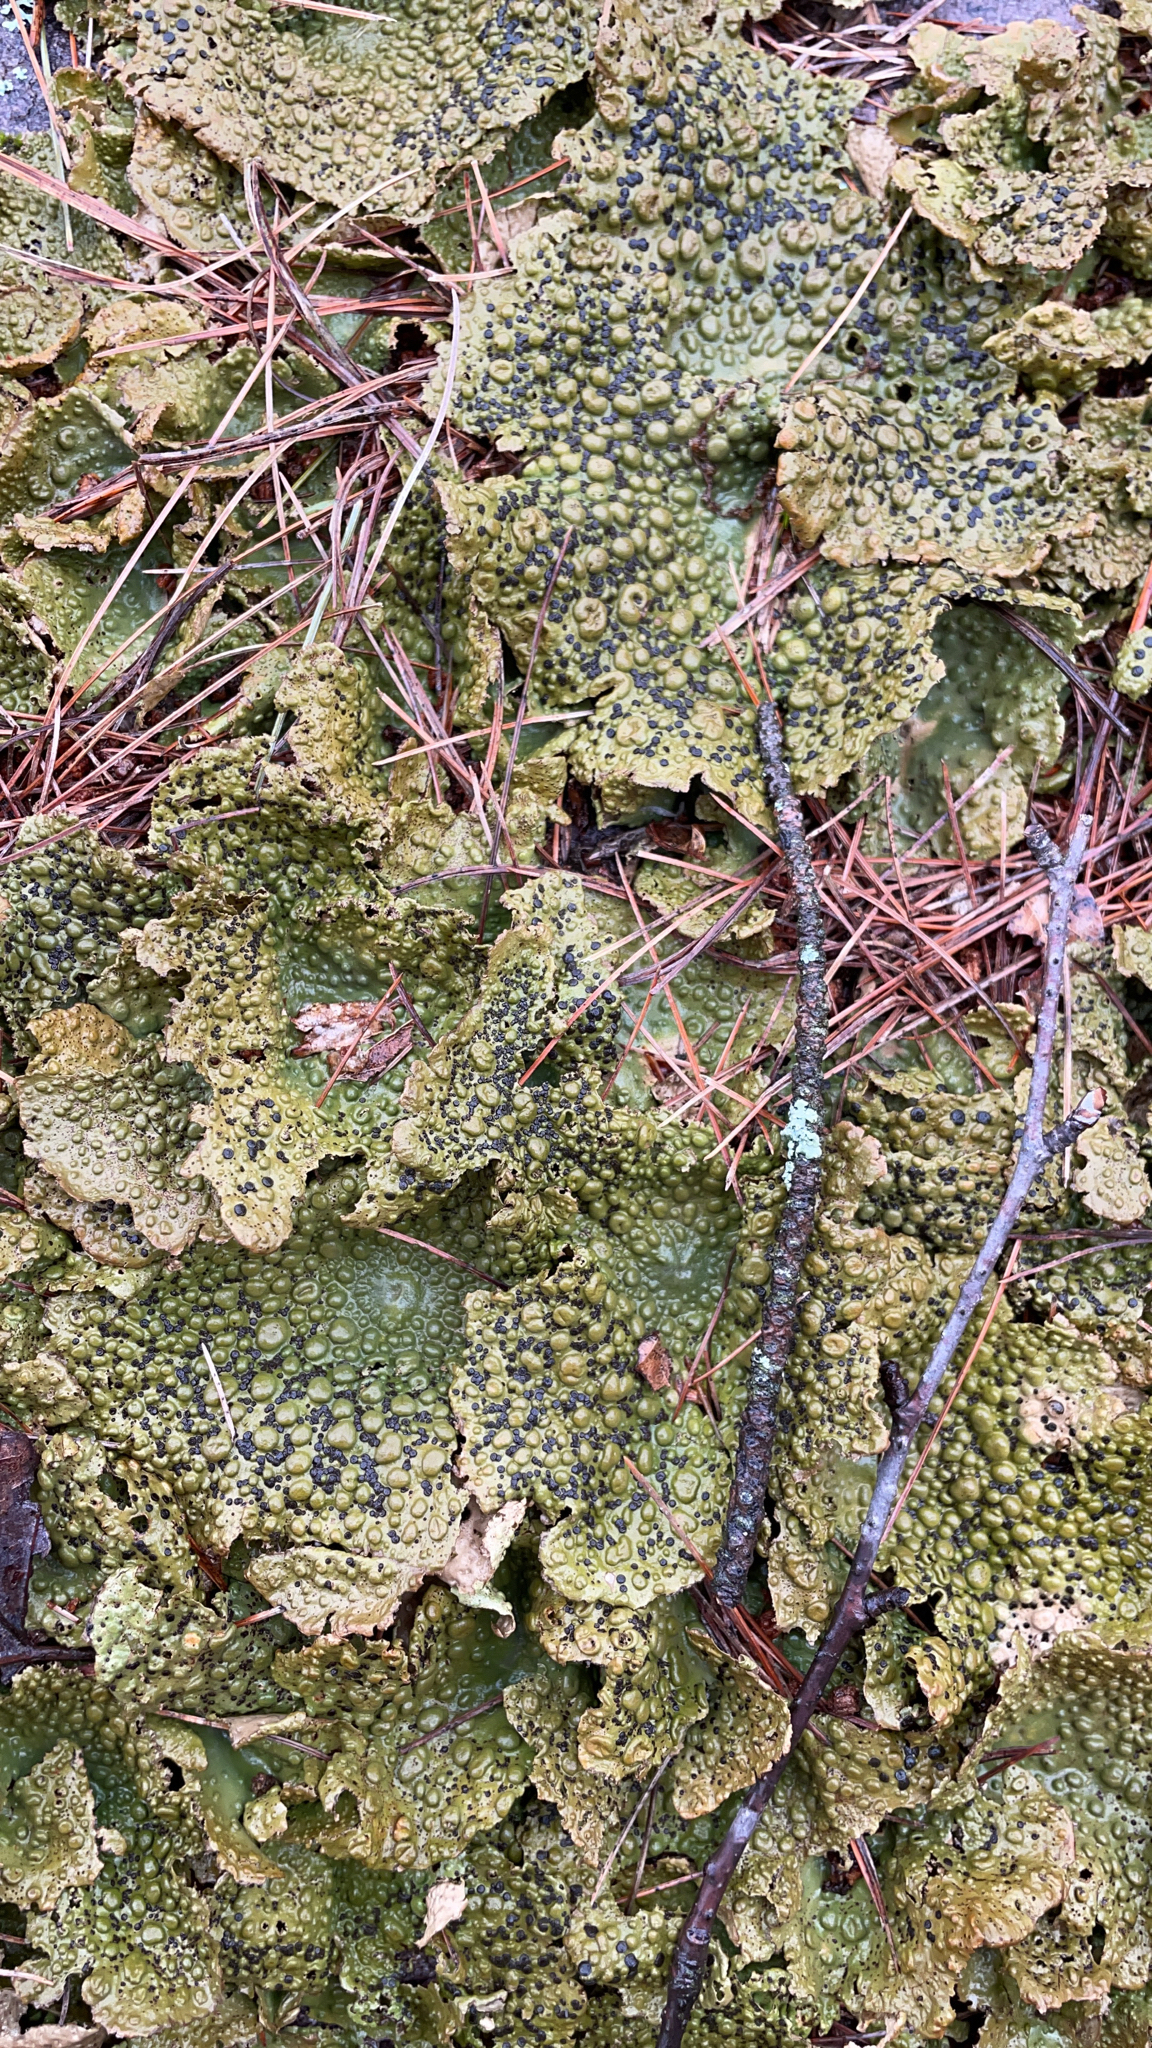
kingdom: Fungi
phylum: Ascomycota
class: Lecanoromycetes
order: Umbilicariales
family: Umbilicariaceae
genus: Lasallia
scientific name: Lasallia papulosa
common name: Common toadskin lichen
